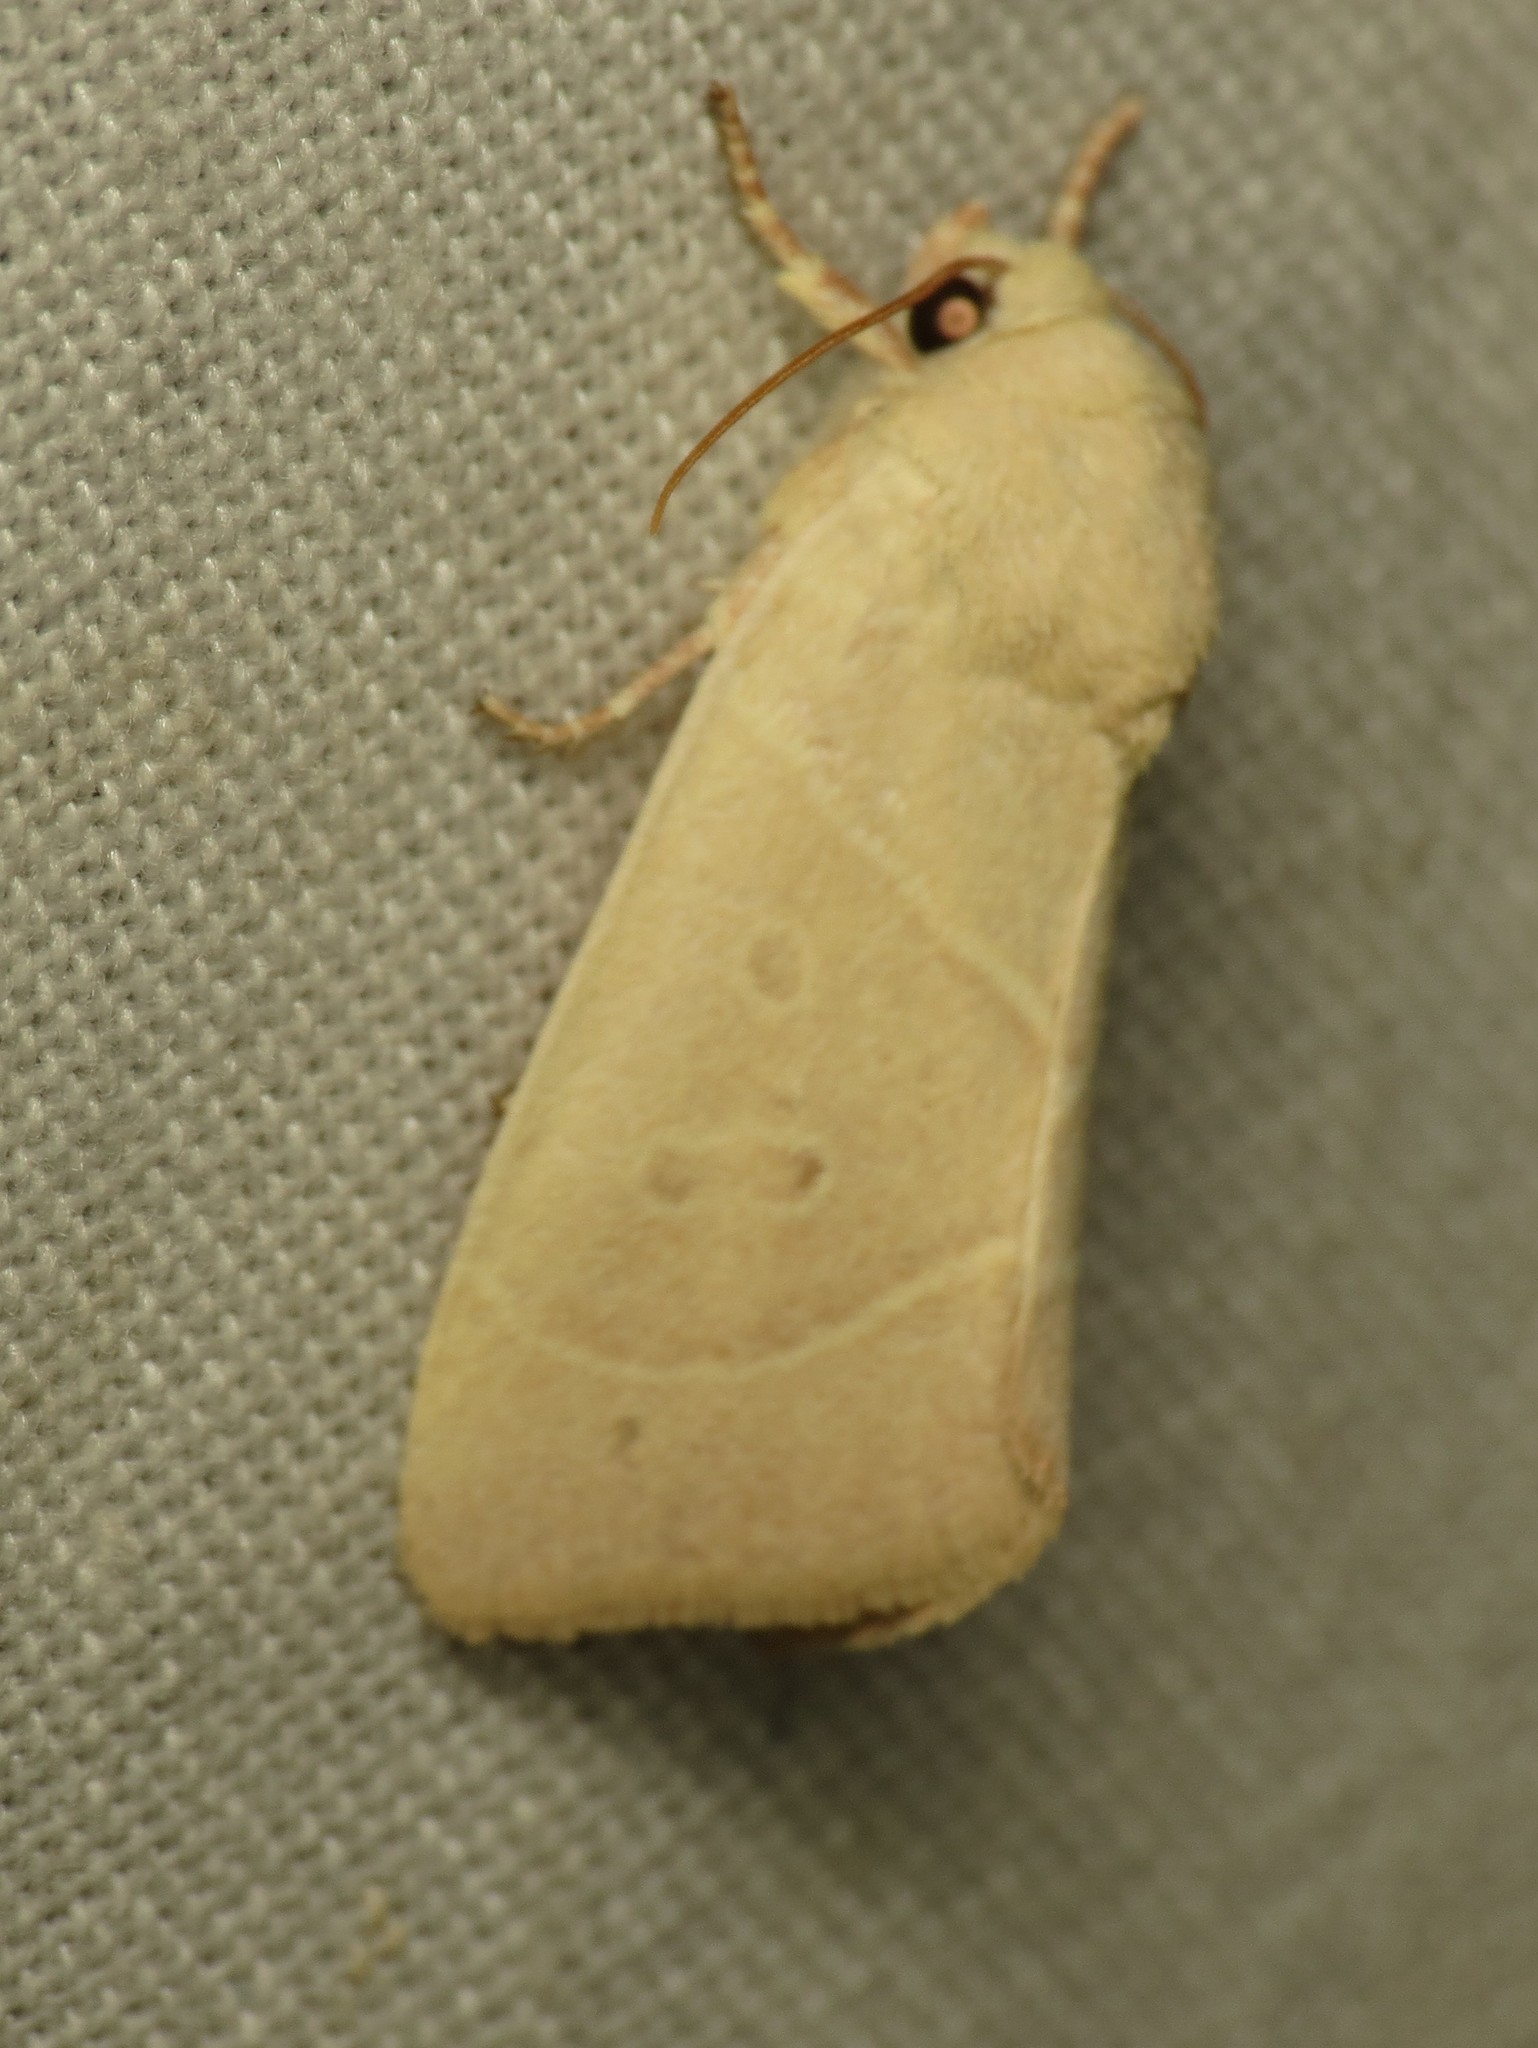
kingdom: Animalia
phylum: Arthropoda
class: Insecta
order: Lepidoptera
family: Noctuidae
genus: Cosmia
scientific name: Cosmia calami
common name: American dun-bar moth
